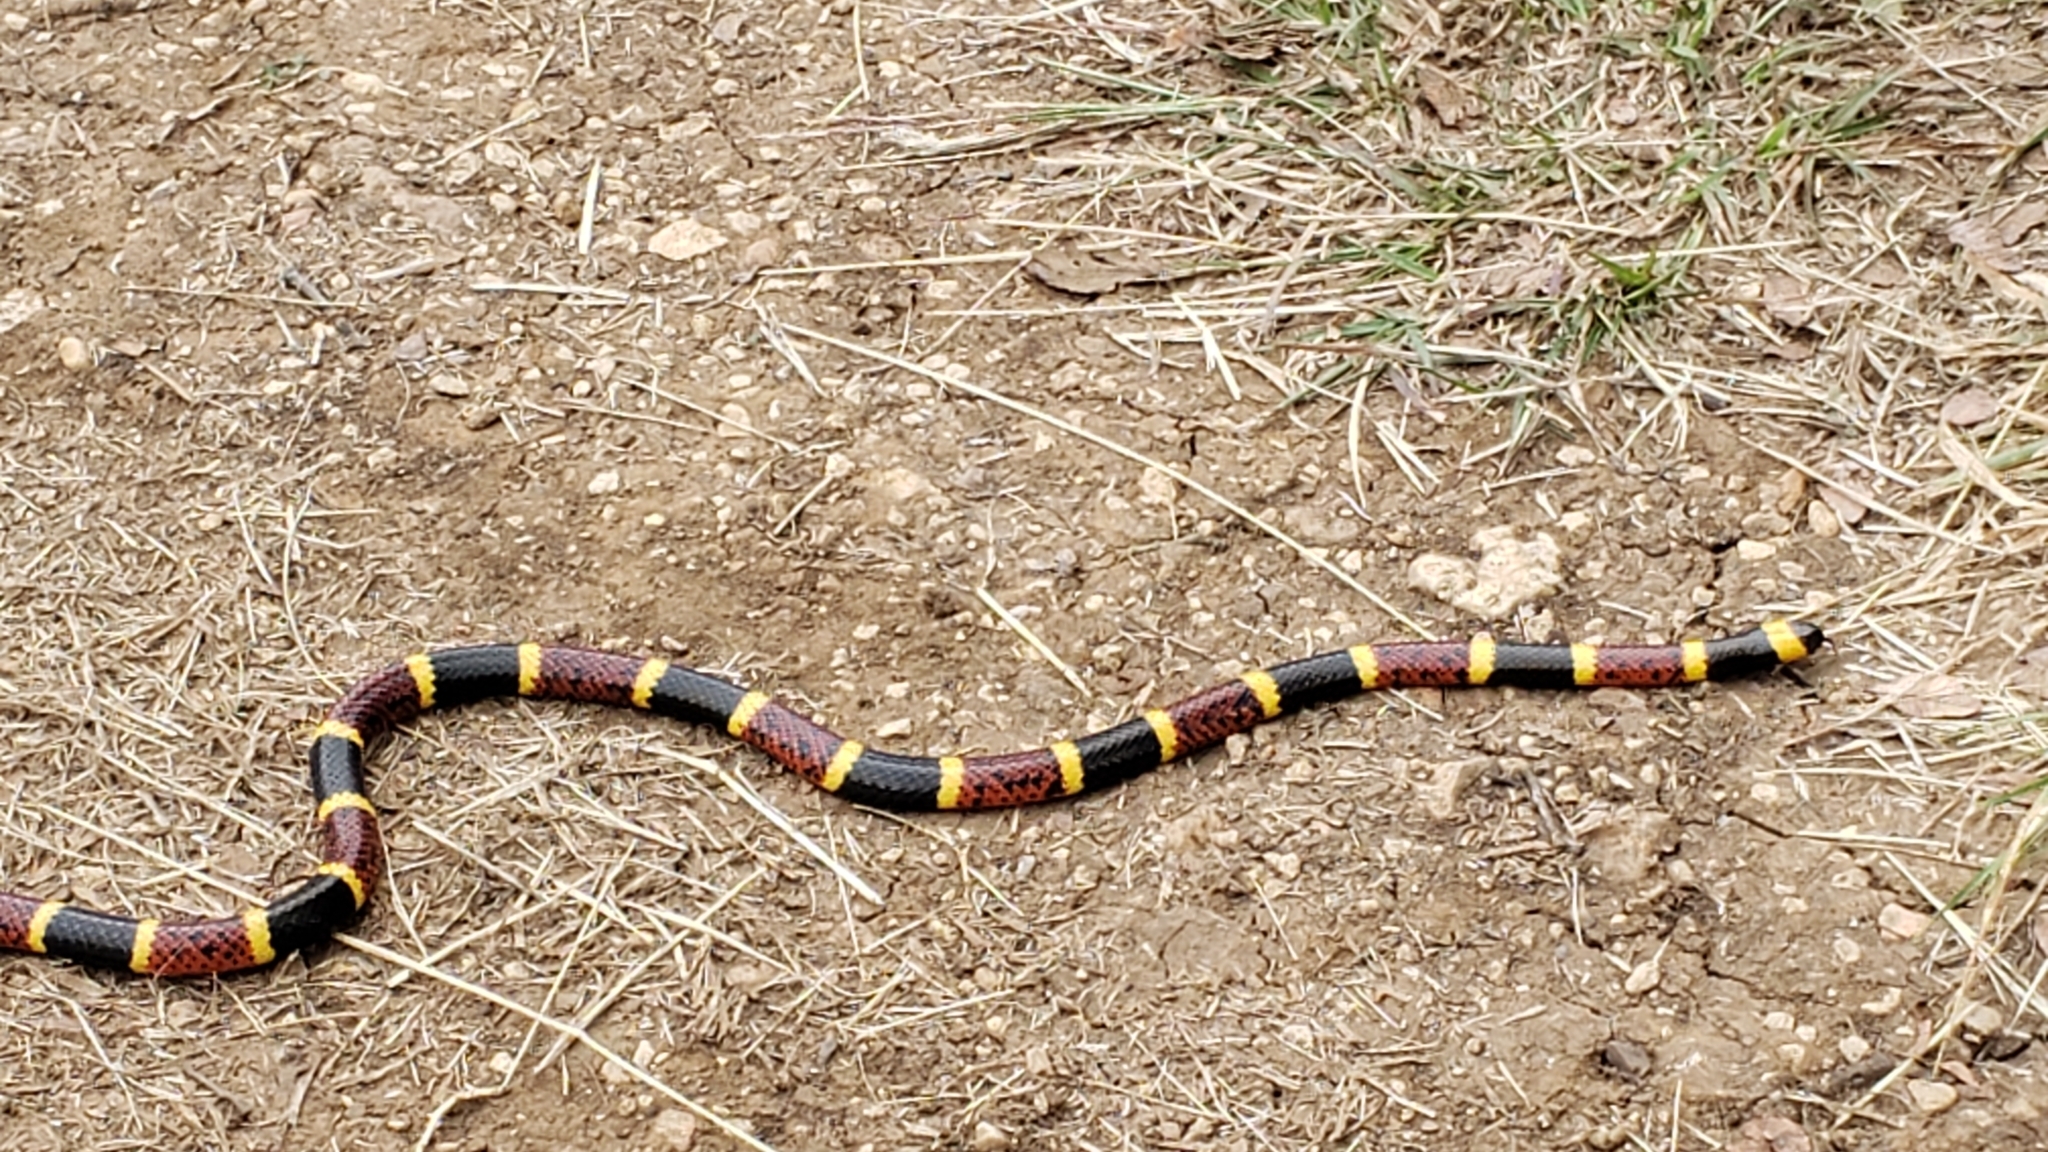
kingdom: Animalia
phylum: Chordata
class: Squamata
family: Elapidae
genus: Micrurus
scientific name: Micrurus tener
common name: Texas coral snake
